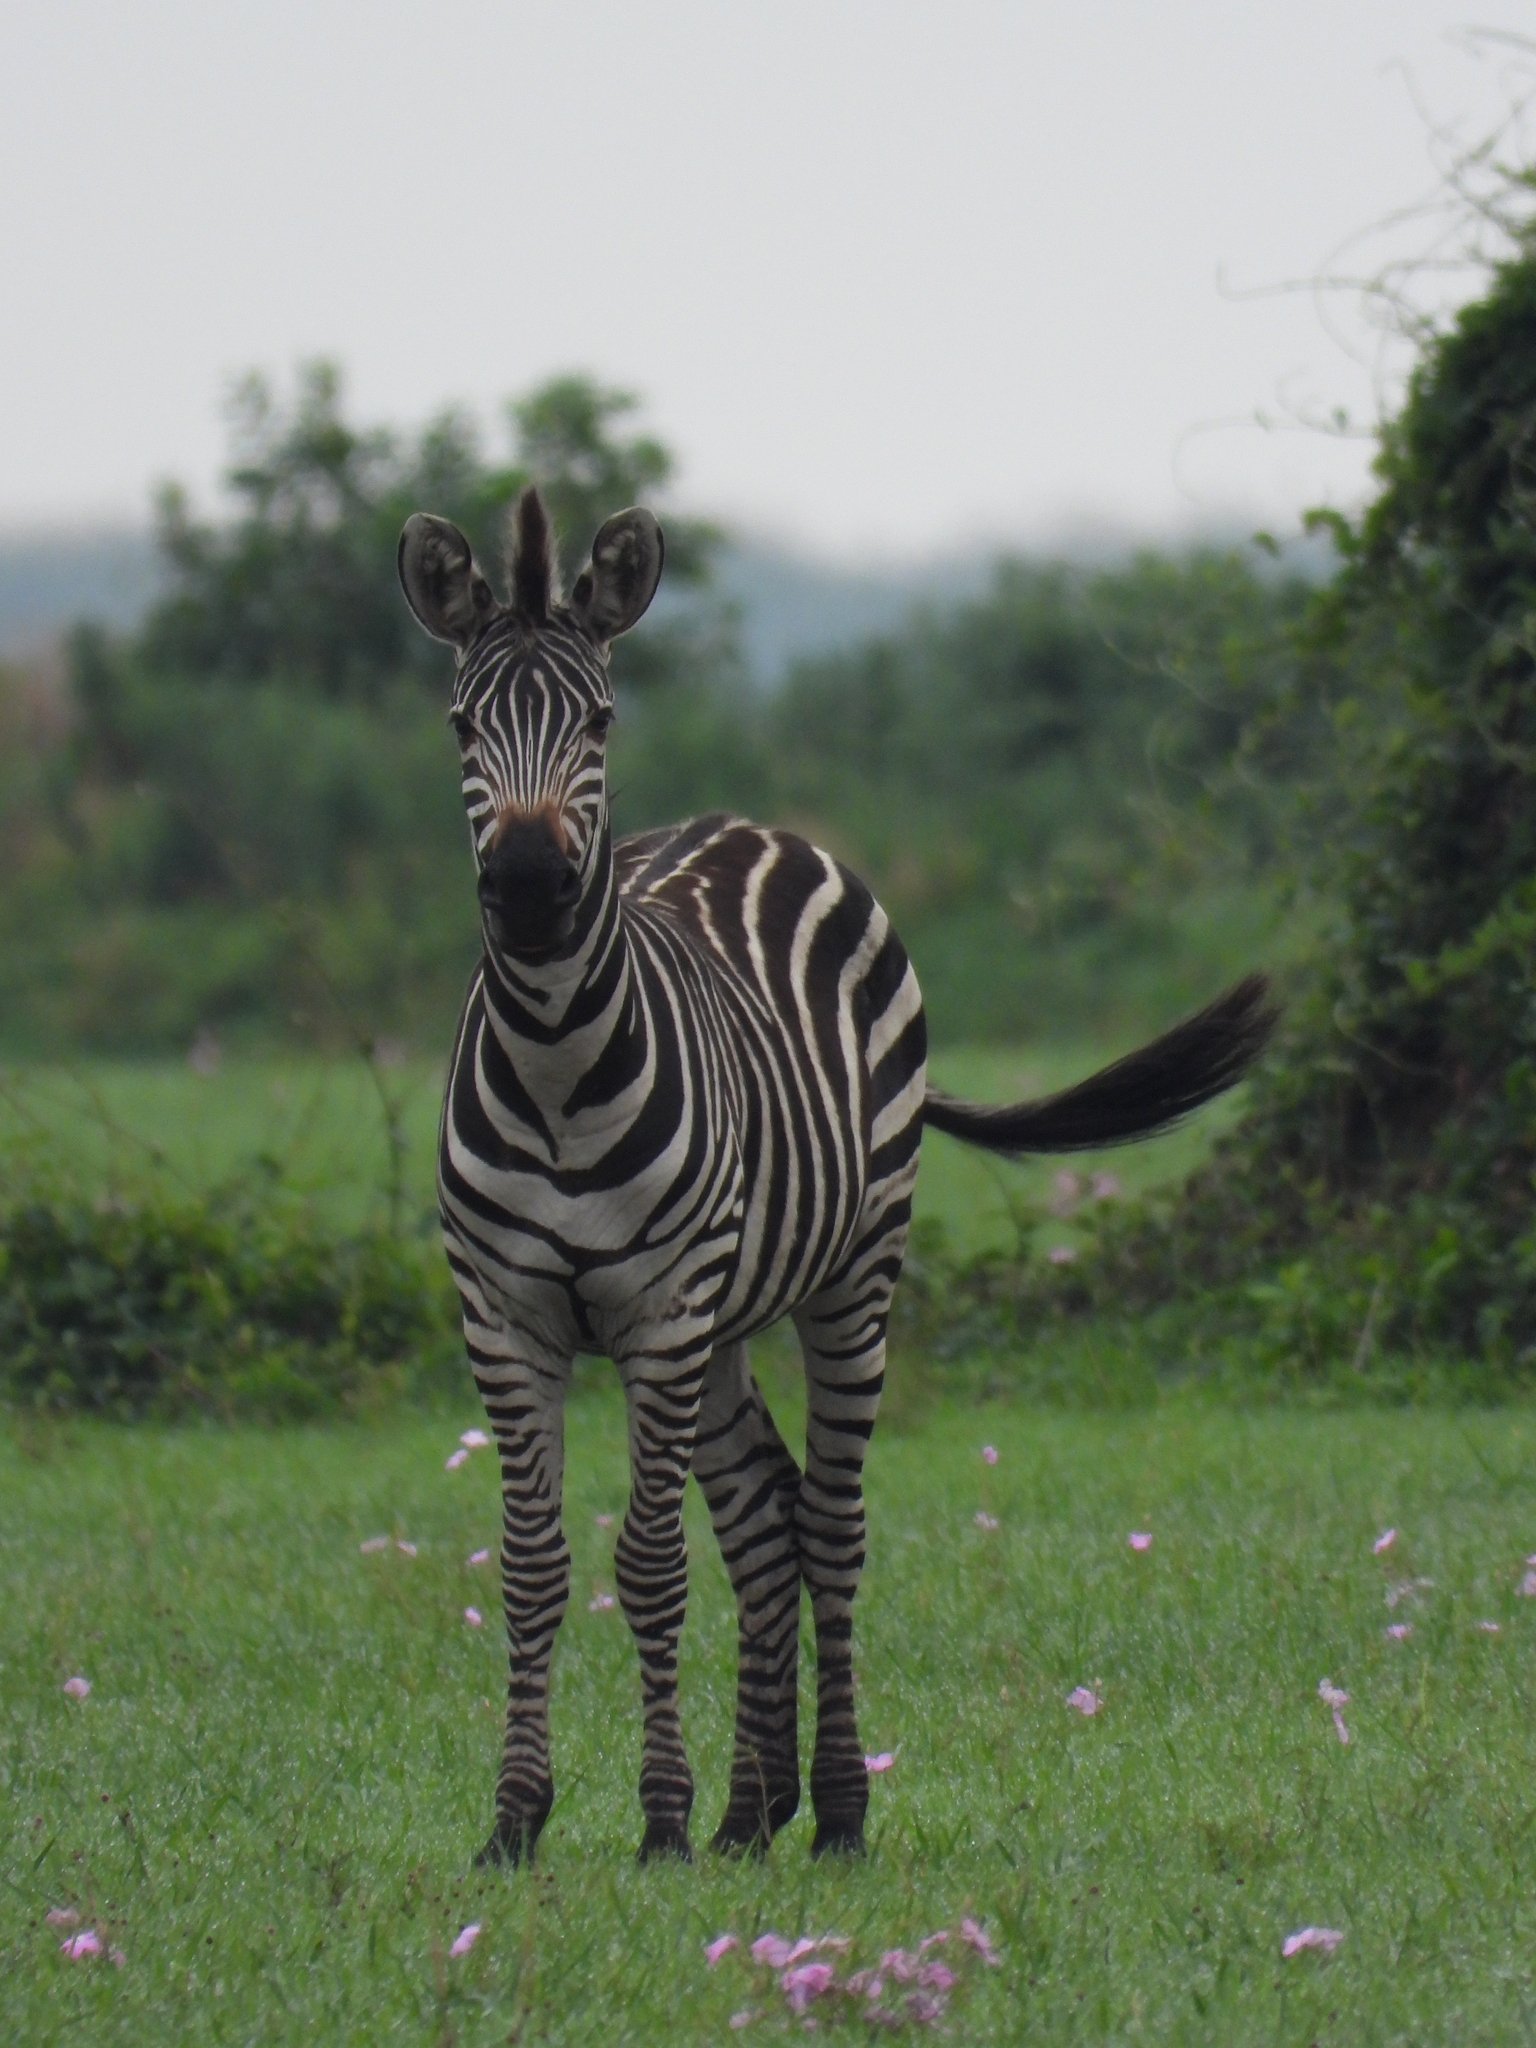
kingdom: Animalia
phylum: Chordata
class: Mammalia
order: Perissodactyla
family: Equidae
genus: Equus
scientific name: Equus quagga
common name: Plains zebra
